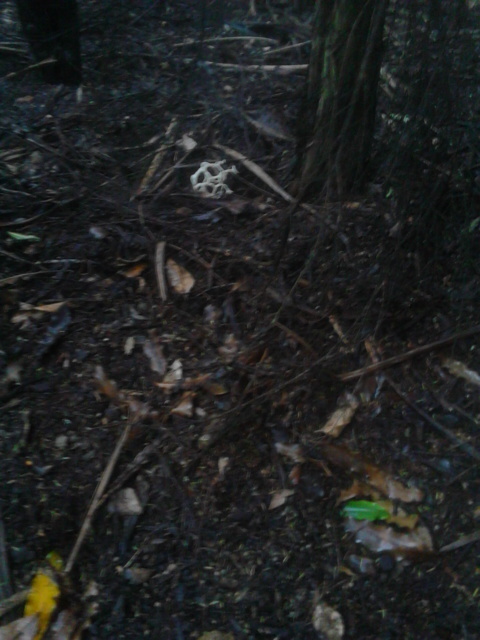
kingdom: Fungi
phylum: Basidiomycota
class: Agaricomycetes
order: Phallales
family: Phallaceae
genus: Ileodictyon
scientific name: Ileodictyon cibarium
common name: Basket fungus
